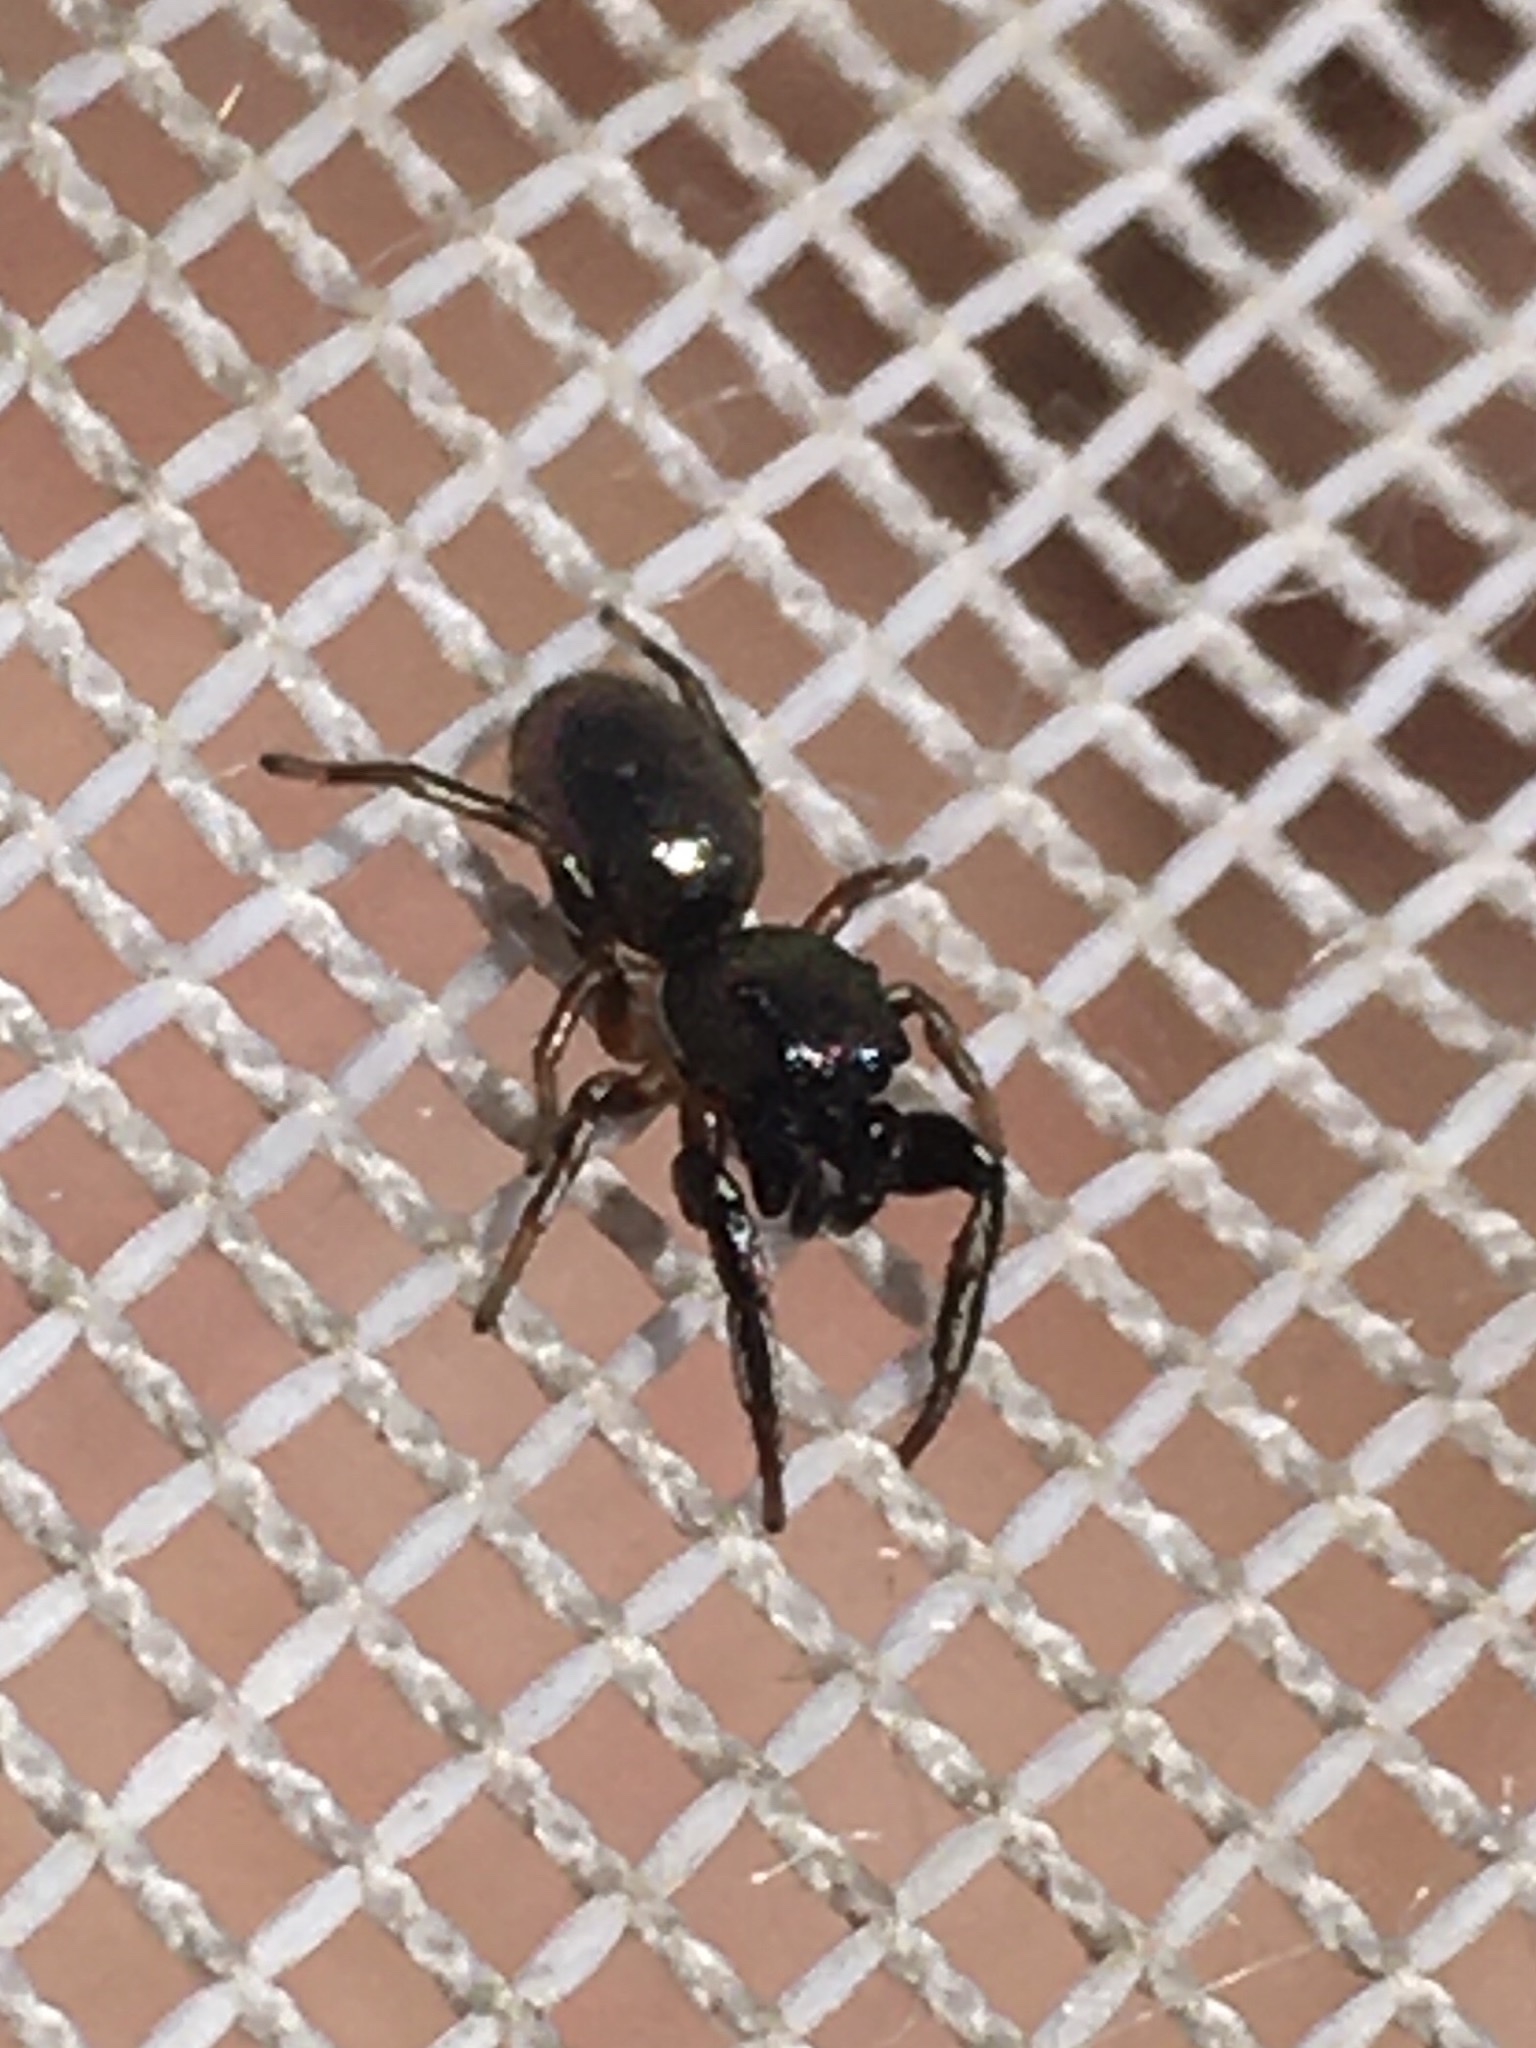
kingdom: Animalia
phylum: Arthropoda
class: Arachnida
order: Araneae
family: Salticidae
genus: Tutelina
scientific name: Tutelina formicaria
